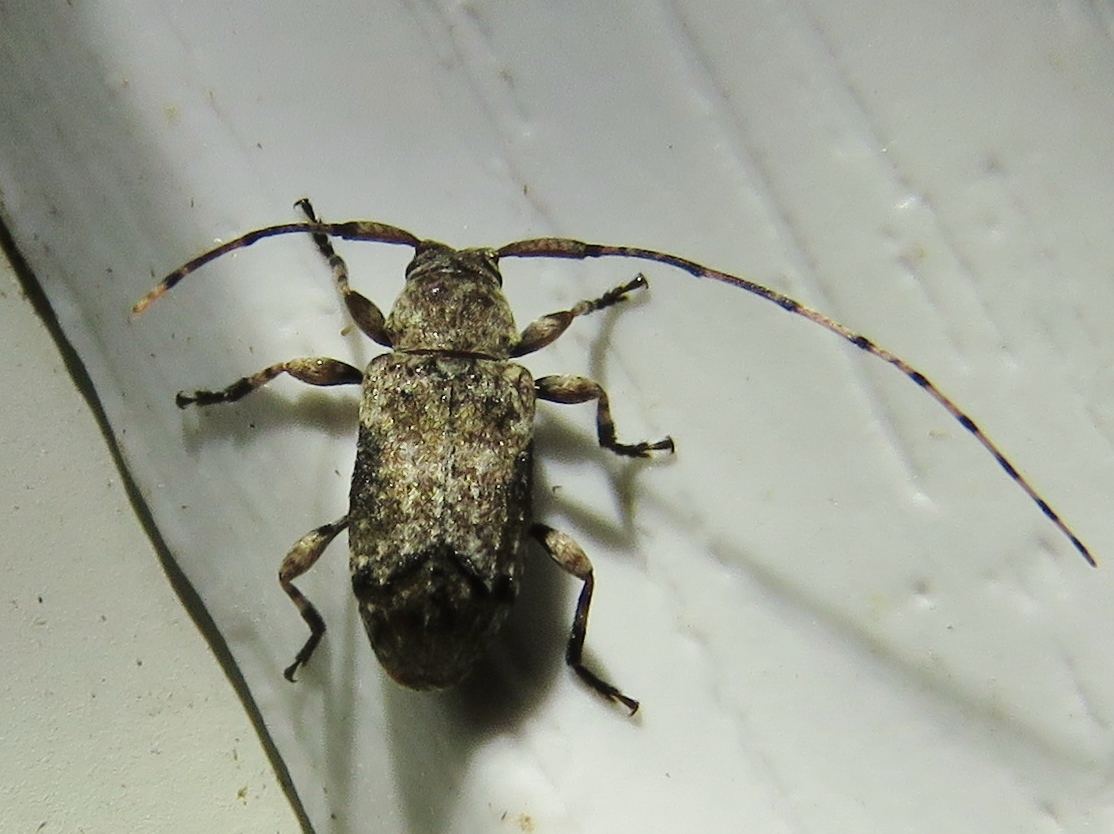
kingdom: Animalia
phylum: Arthropoda
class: Insecta
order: Coleoptera
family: Cerambycidae
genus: Sternidius
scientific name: Sternidius mimeticus
